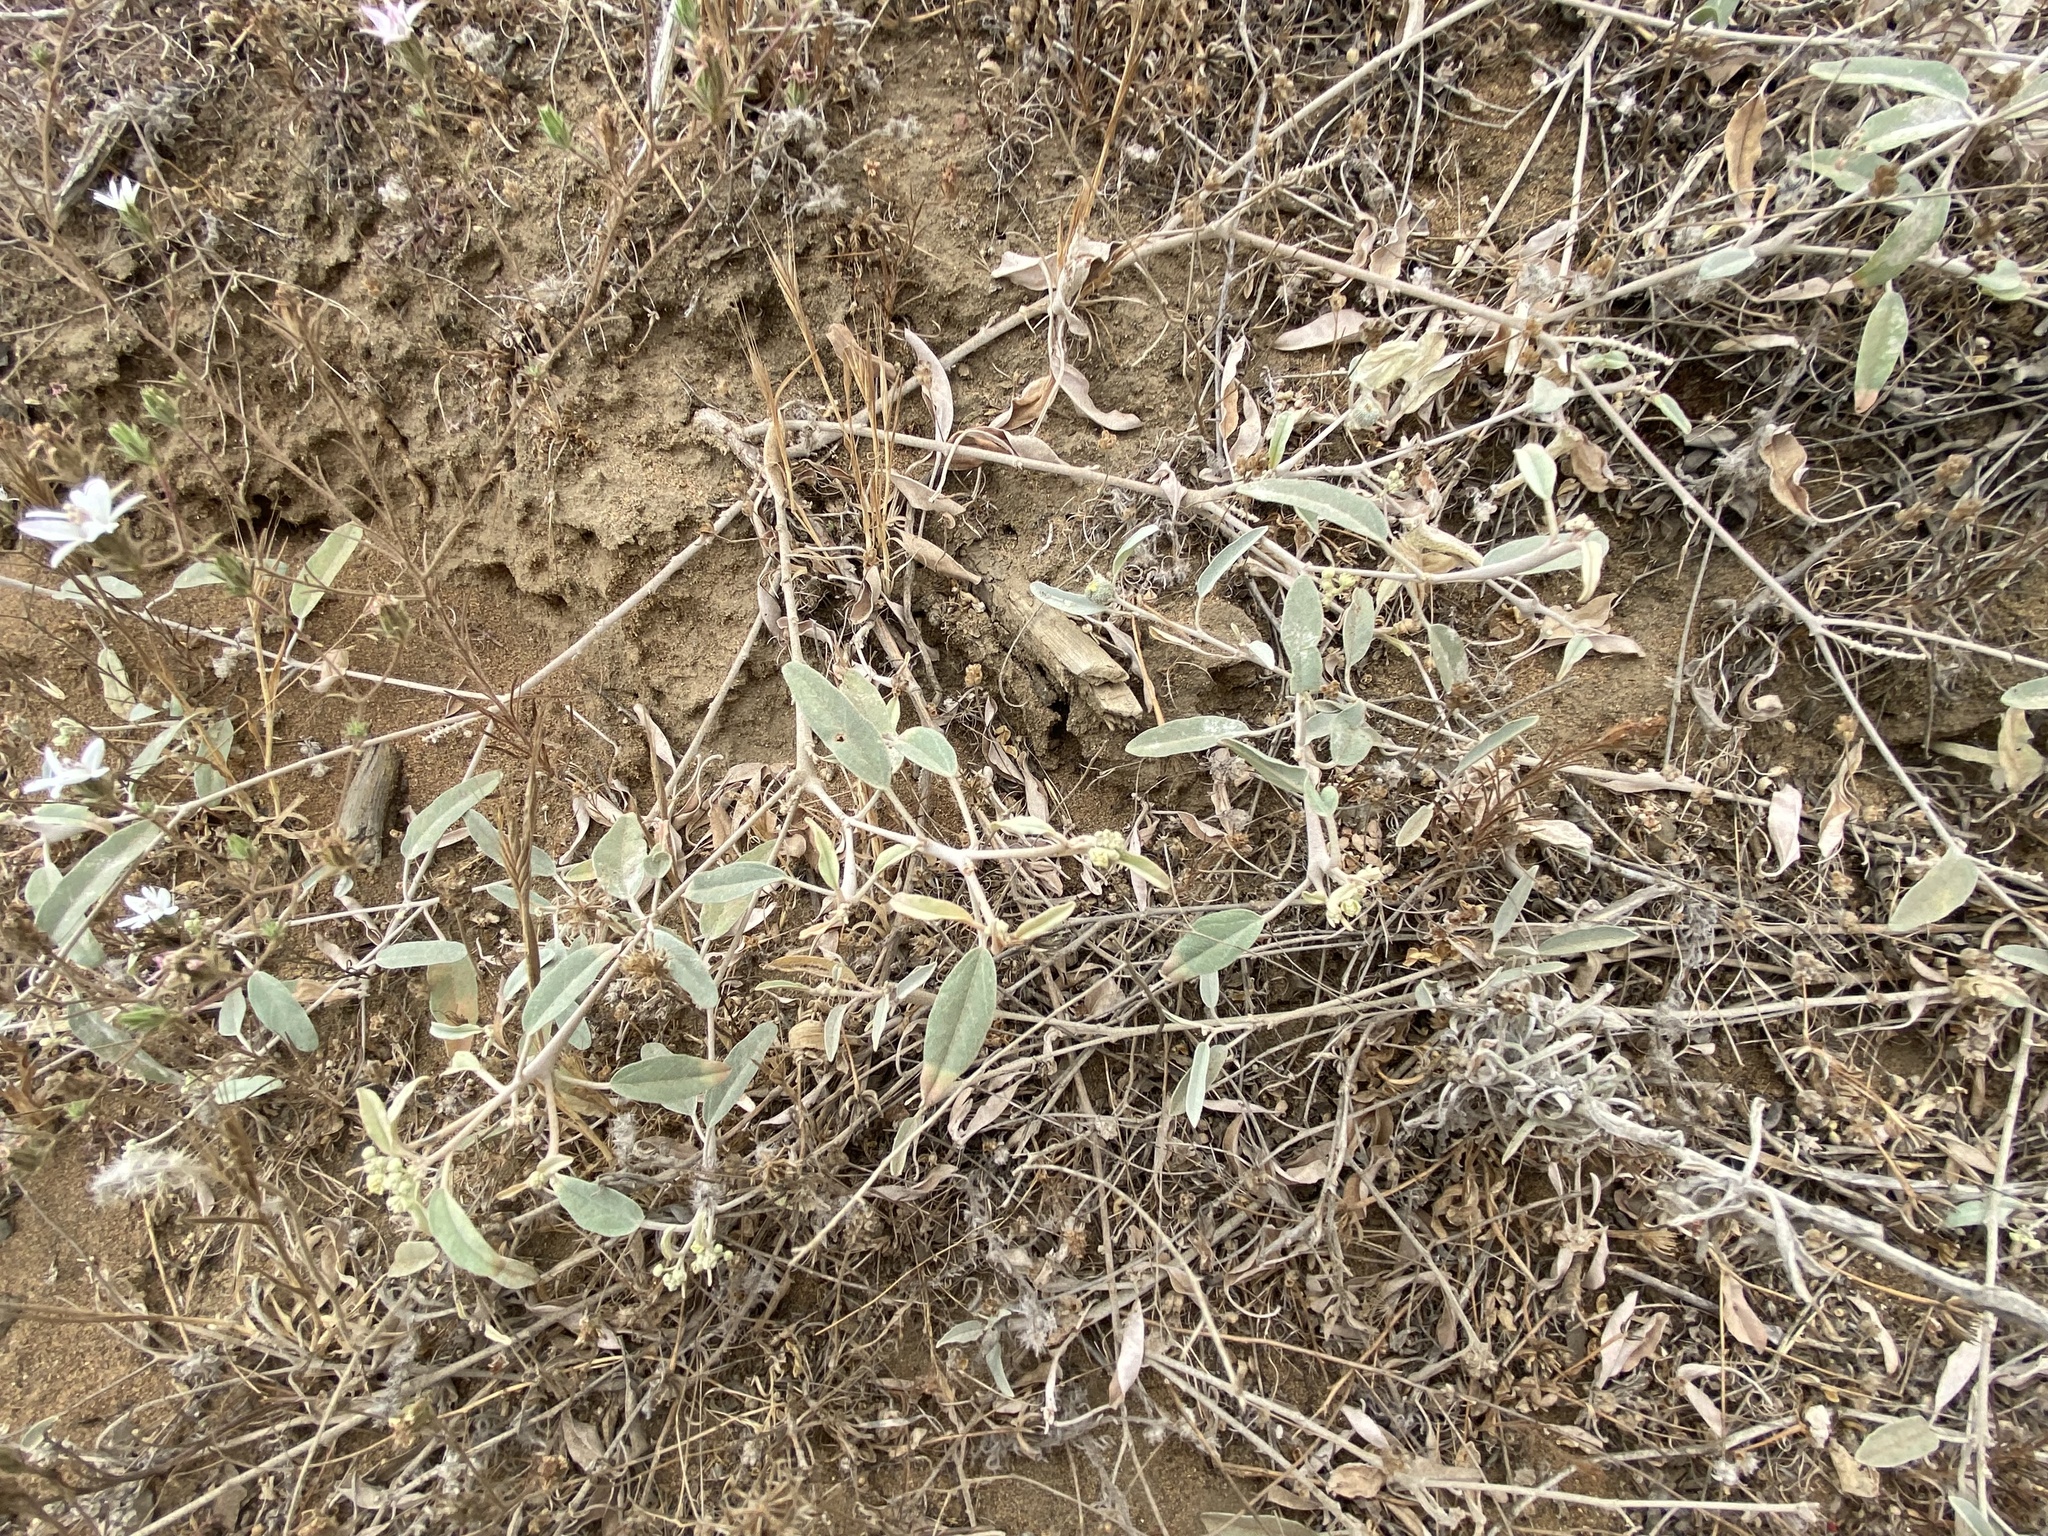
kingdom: Plantae
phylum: Tracheophyta
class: Magnoliopsida
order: Malpighiales
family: Euphorbiaceae
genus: Croton
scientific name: Croton californicus
